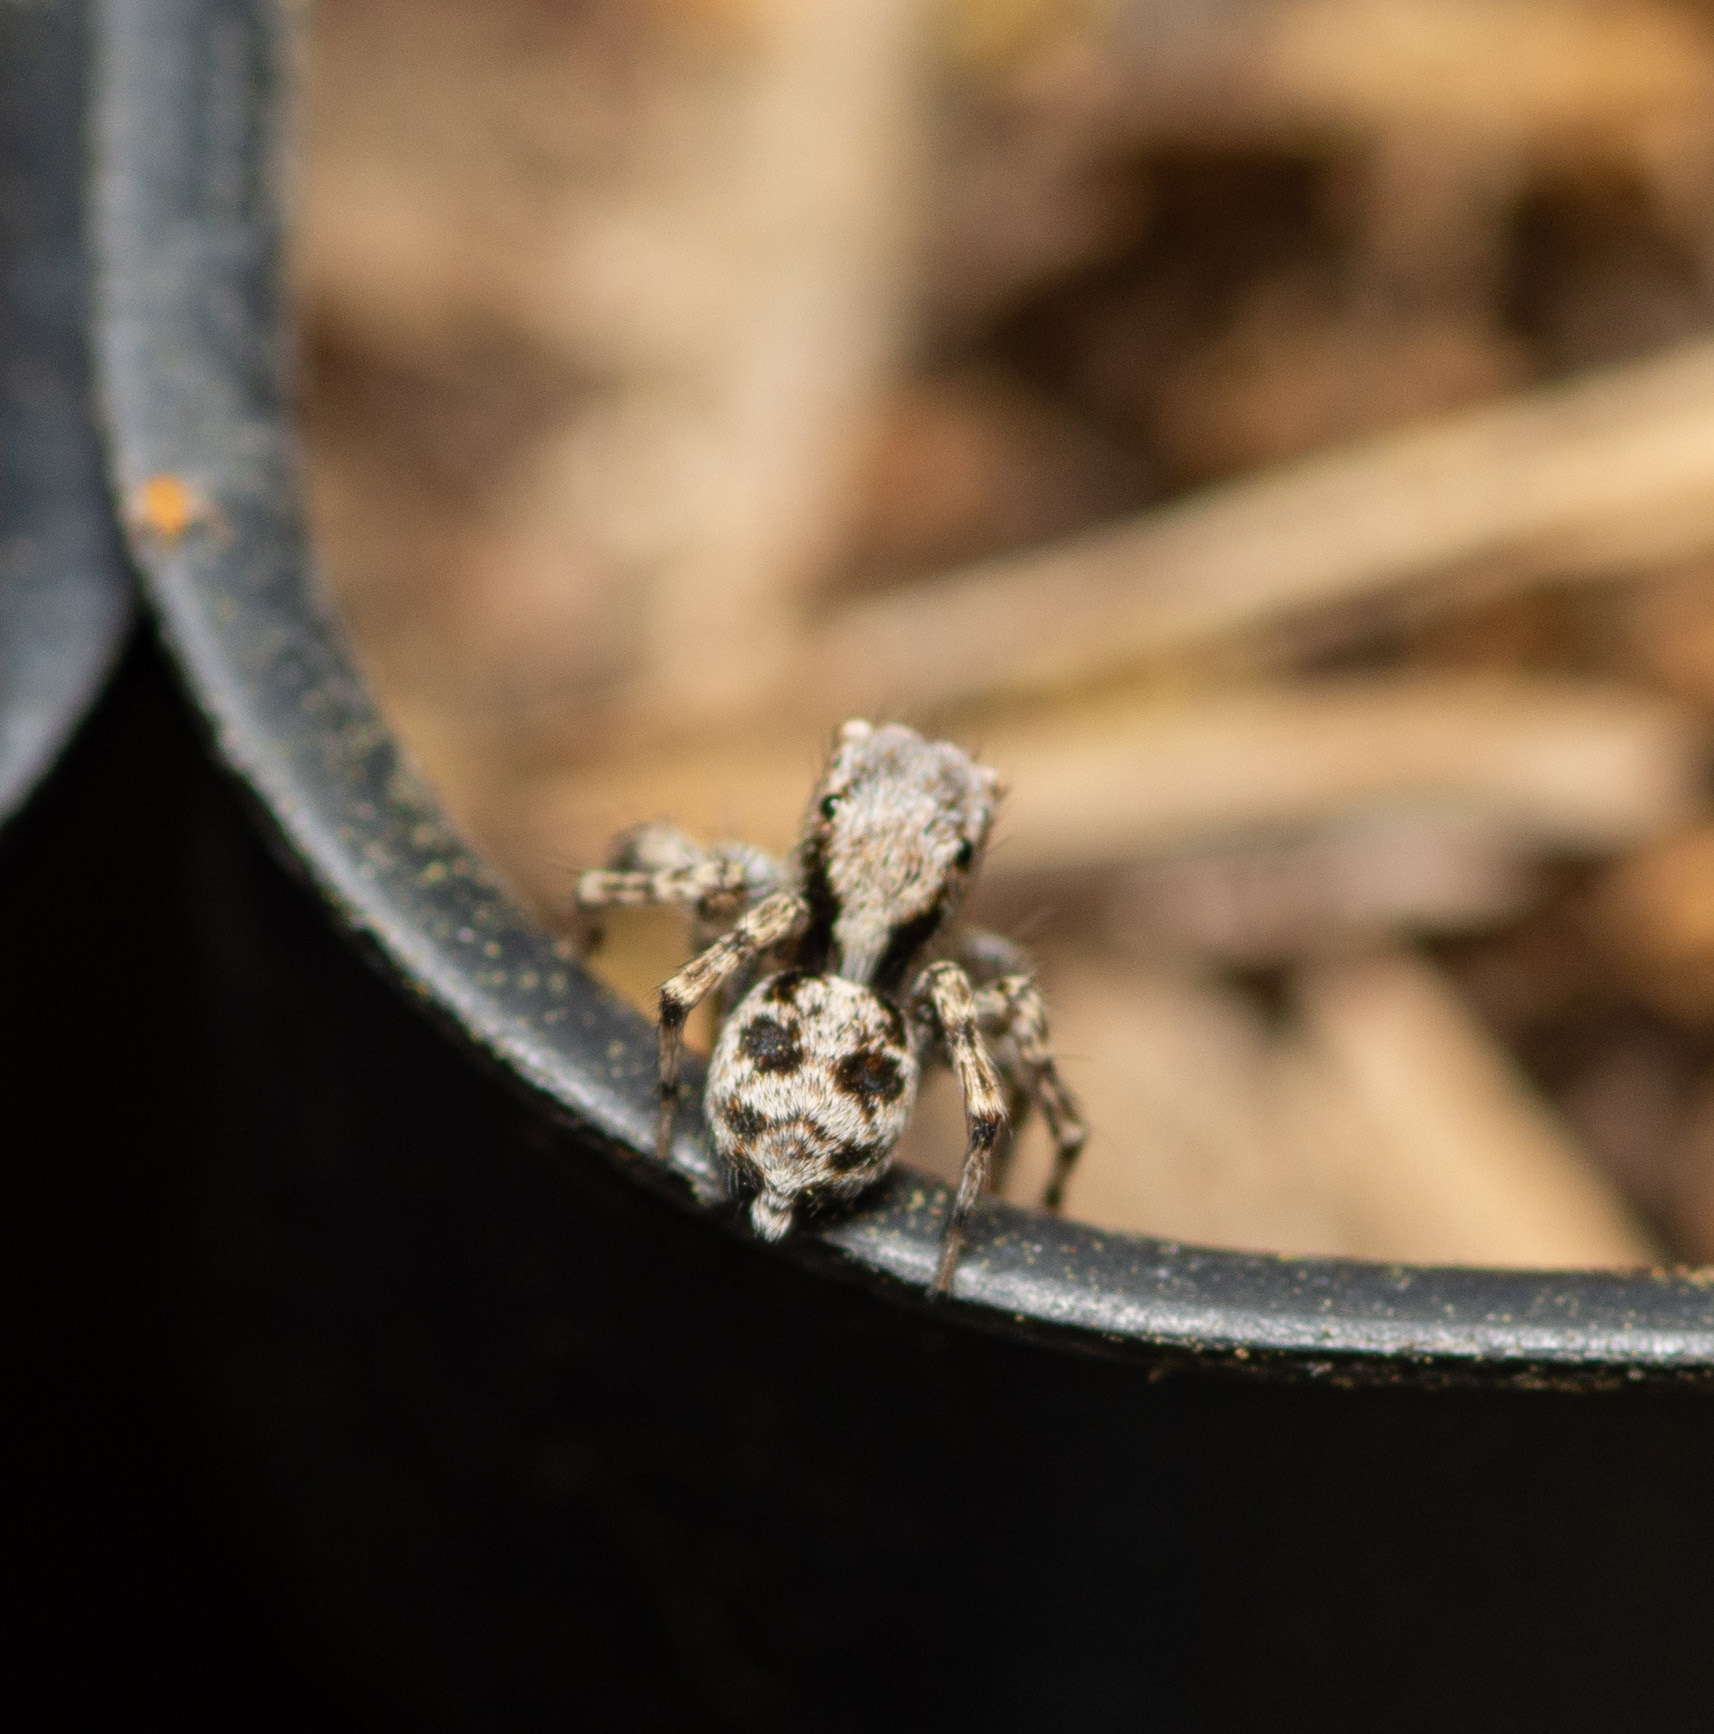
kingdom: Animalia
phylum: Arthropoda
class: Arachnida
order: Araneae
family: Salticidae
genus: Naphrys
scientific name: Naphrys pulex
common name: Flea jumping spider
